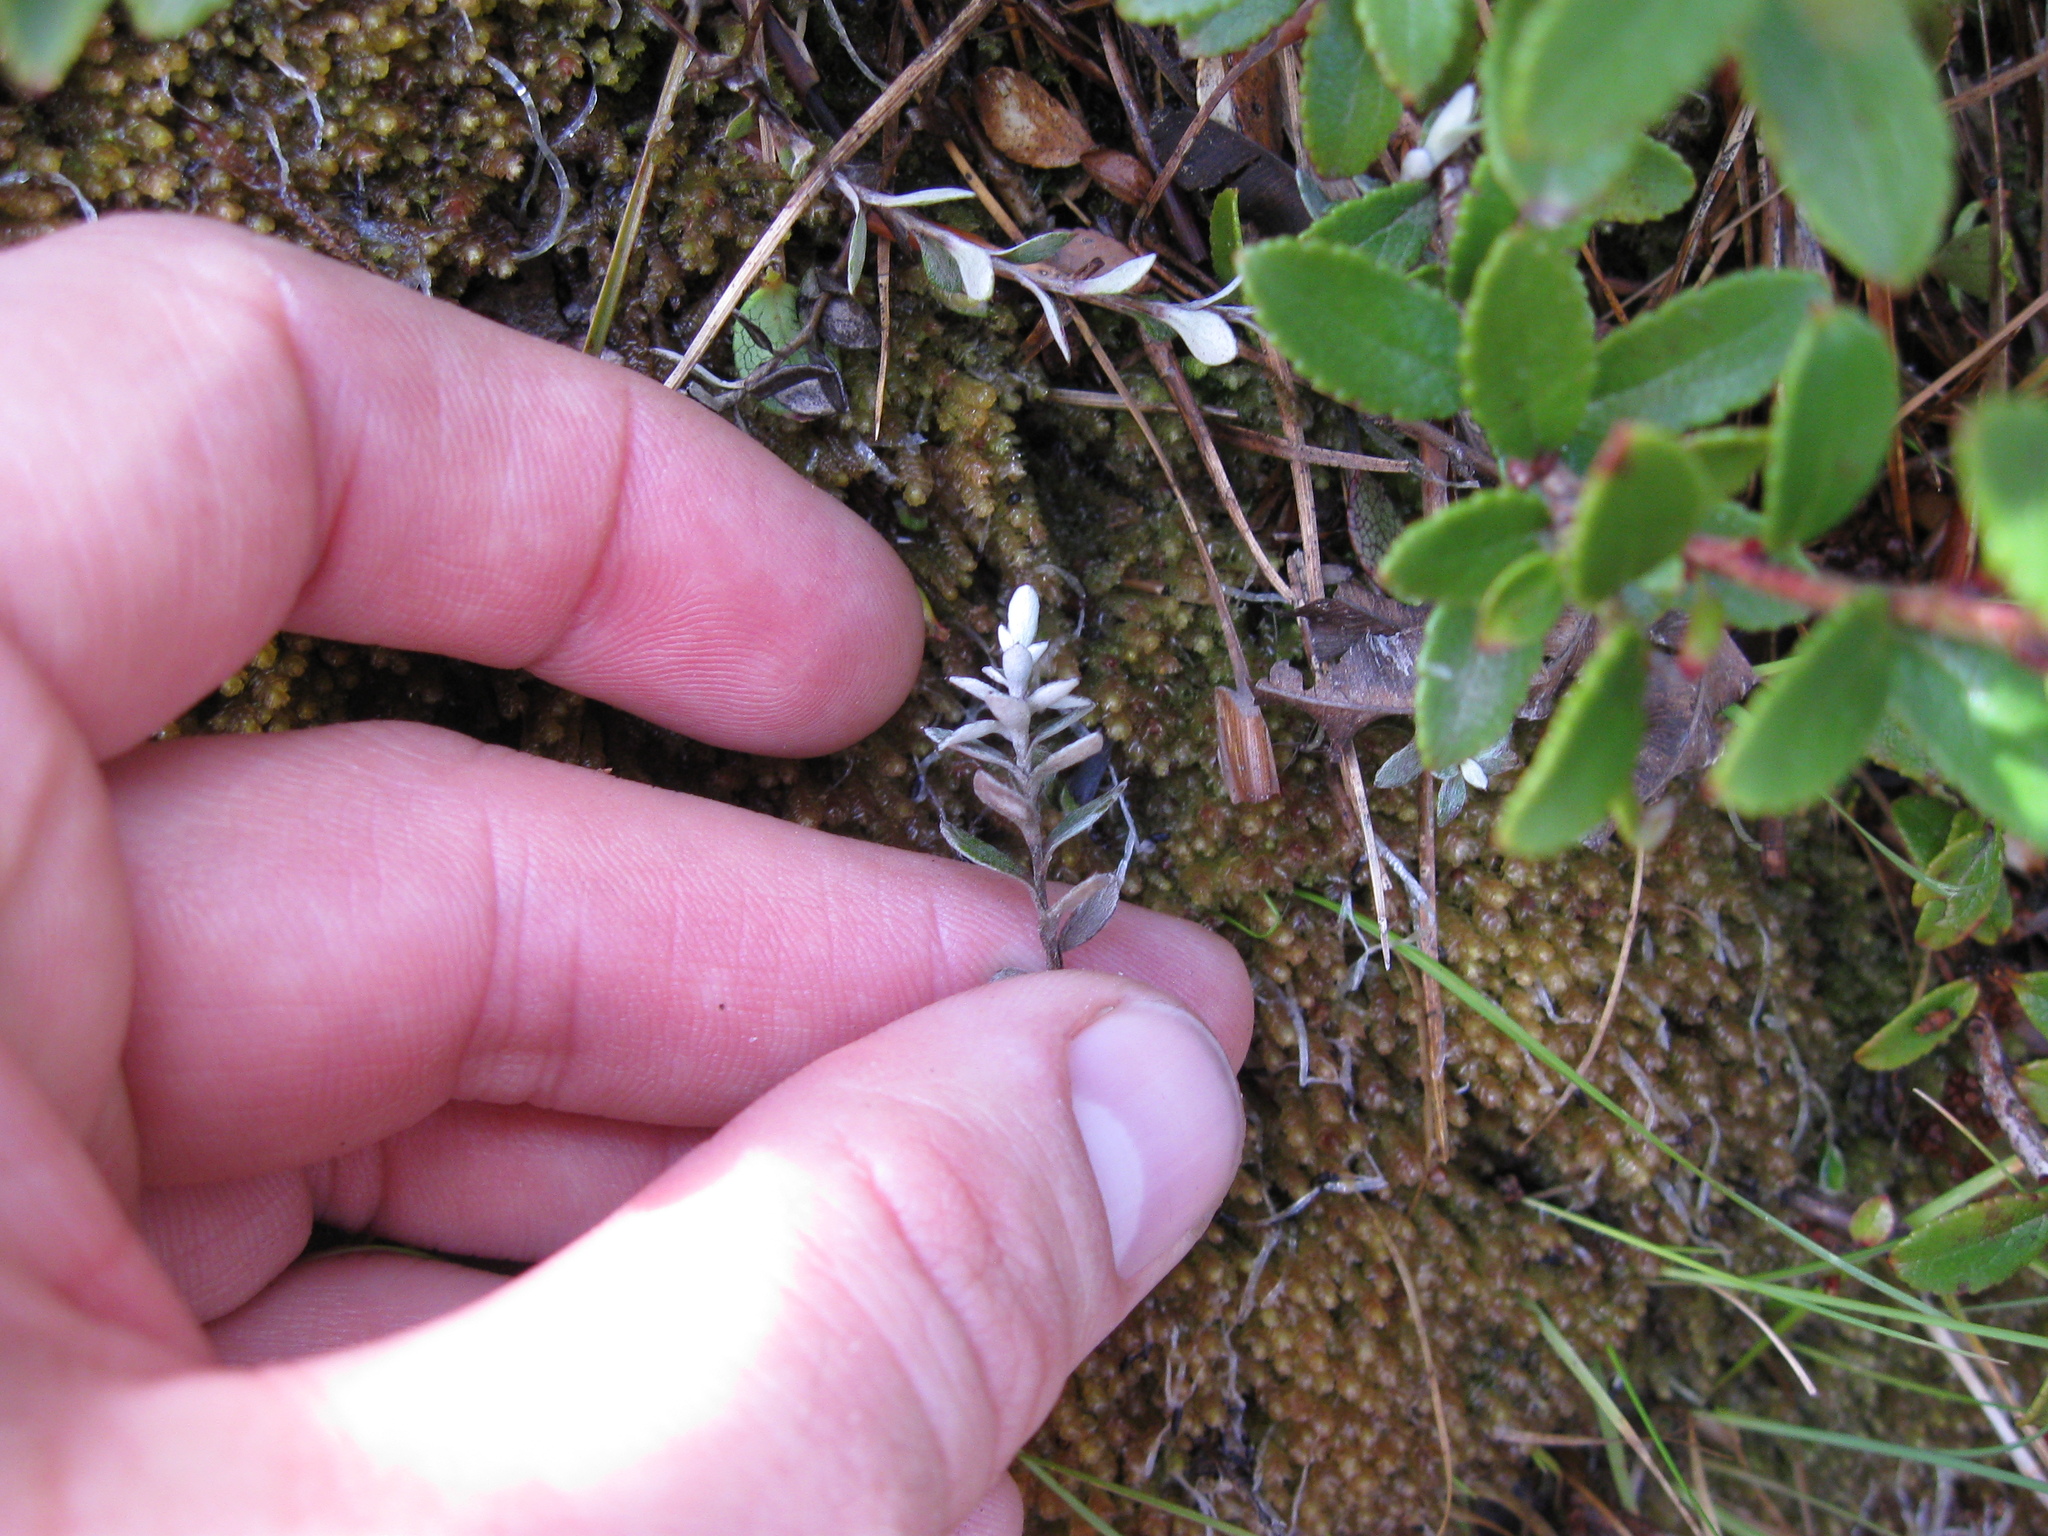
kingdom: Plantae
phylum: Tracheophyta
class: Magnoliopsida
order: Asterales
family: Asteraceae
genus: Anaphalioides
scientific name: Anaphalioides bellidioides
